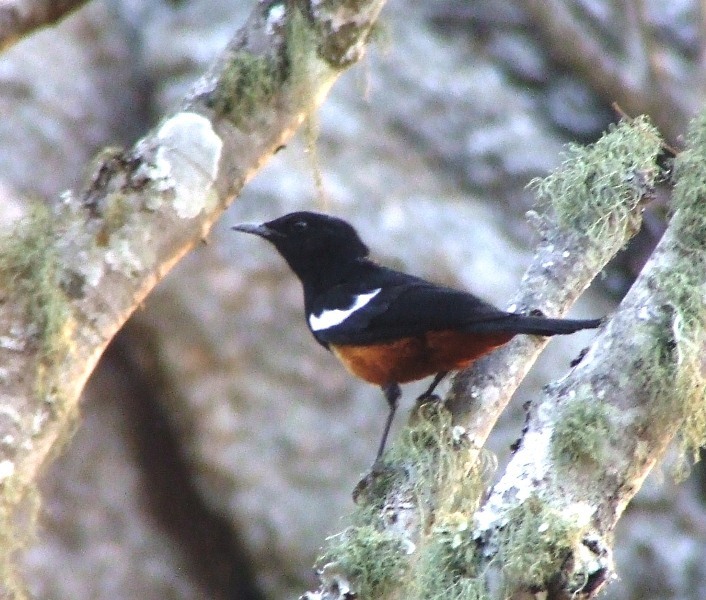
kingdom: Animalia
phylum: Chordata
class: Aves
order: Passeriformes
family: Muscicapidae
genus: Thamnolaea
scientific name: Thamnolaea cinnamomeiventris
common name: Mocking cliff chat
